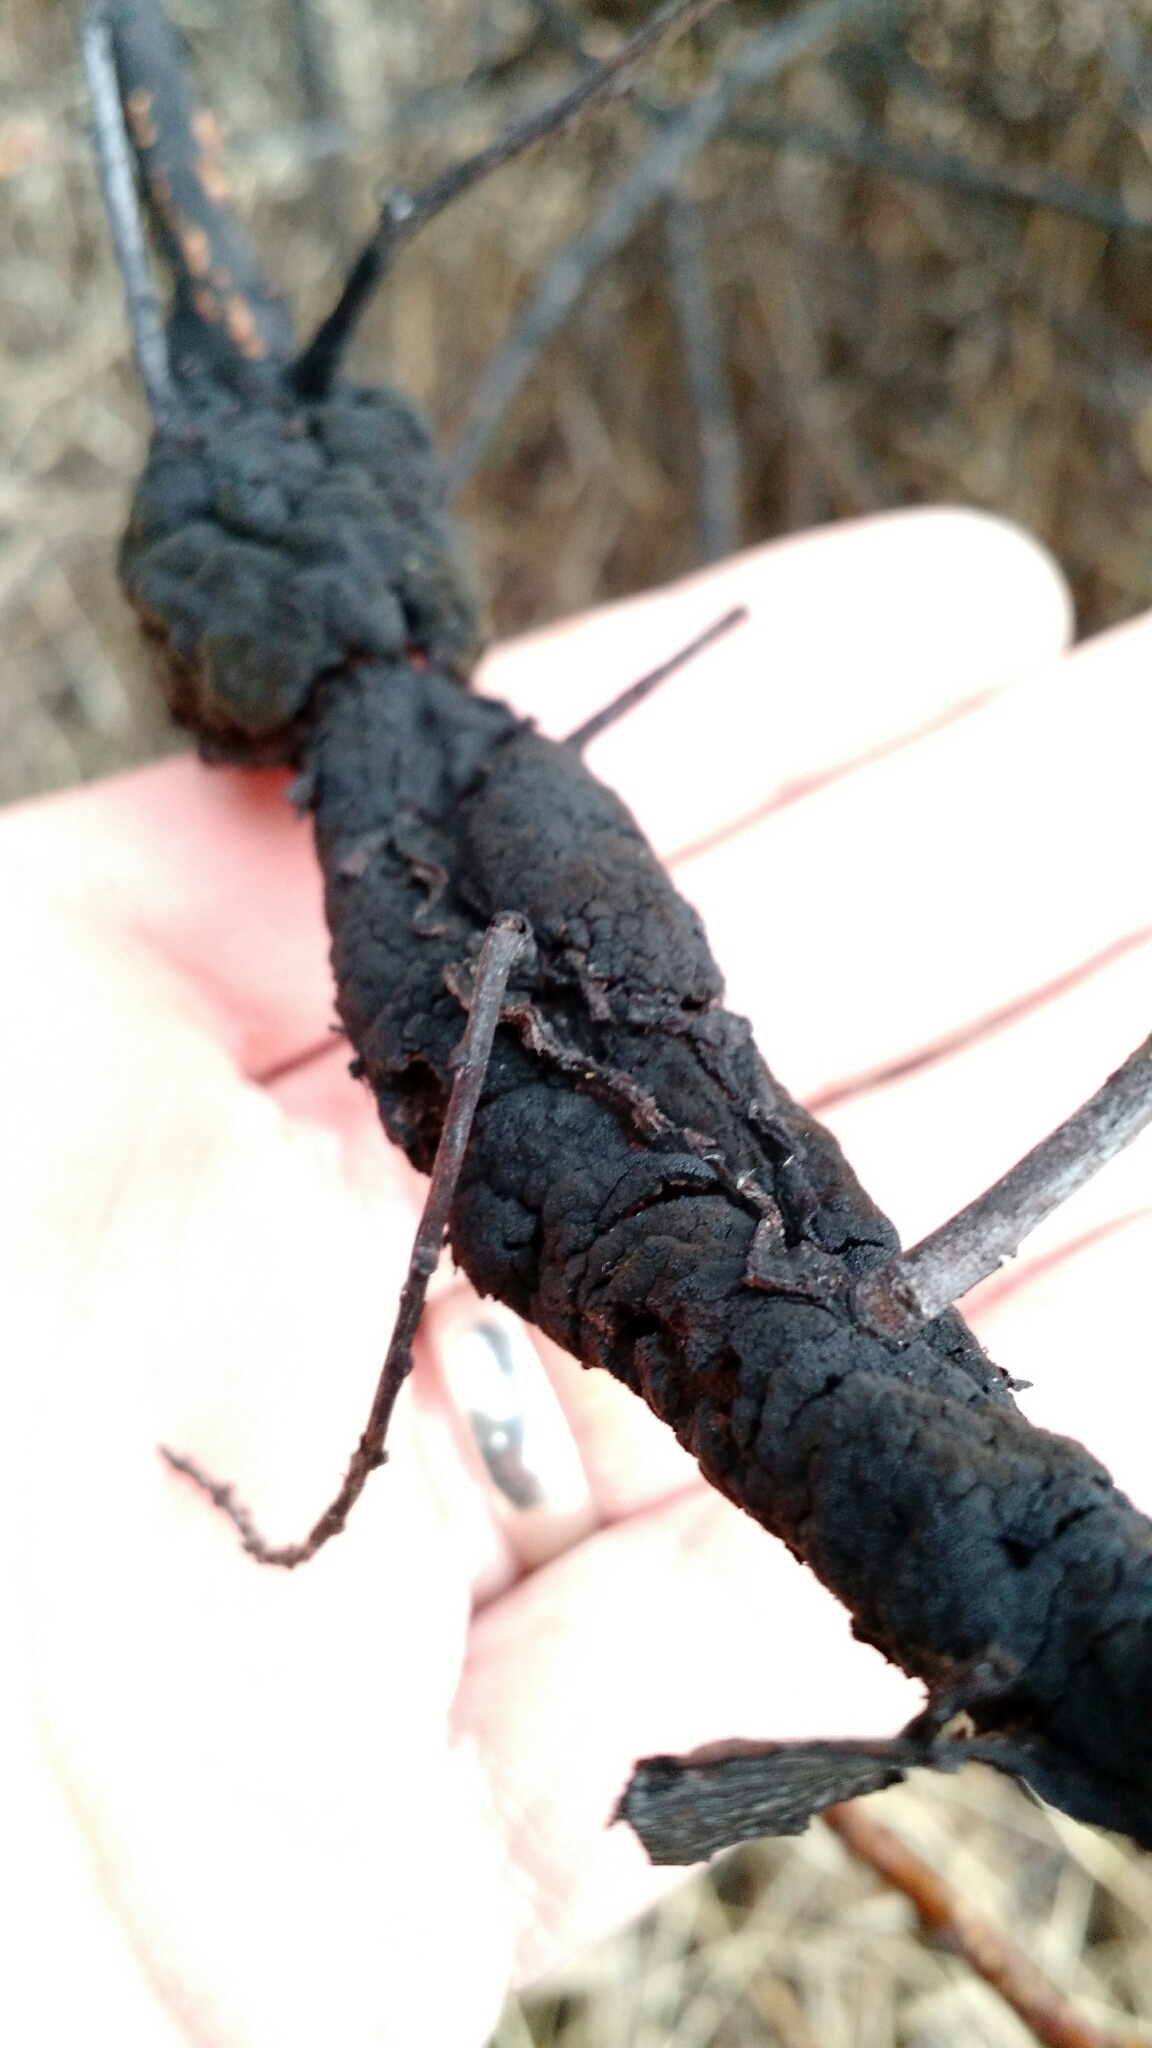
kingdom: Fungi
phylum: Ascomycota
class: Dothideomycetes
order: Venturiales
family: Venturiaceae
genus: Apiosporina
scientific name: Apiosporina morbosa
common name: Black knot
